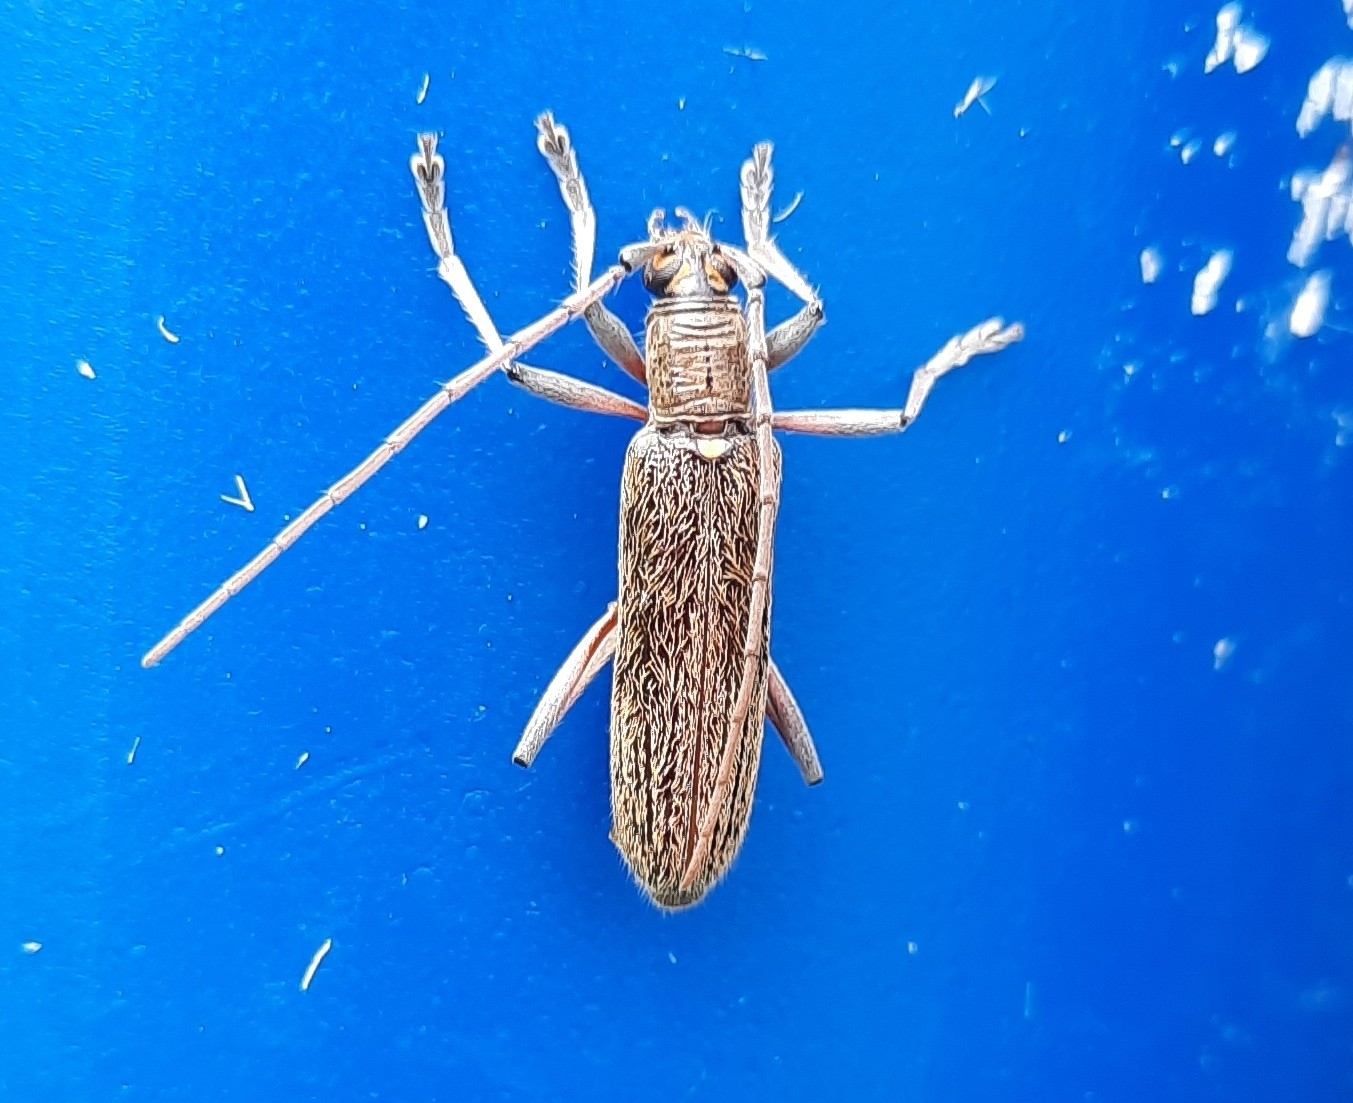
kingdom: Animalia
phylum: Arthropoda
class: Insecta
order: Coleoptera
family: Cerambycidae
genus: Oemona
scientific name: Oemona hirta
